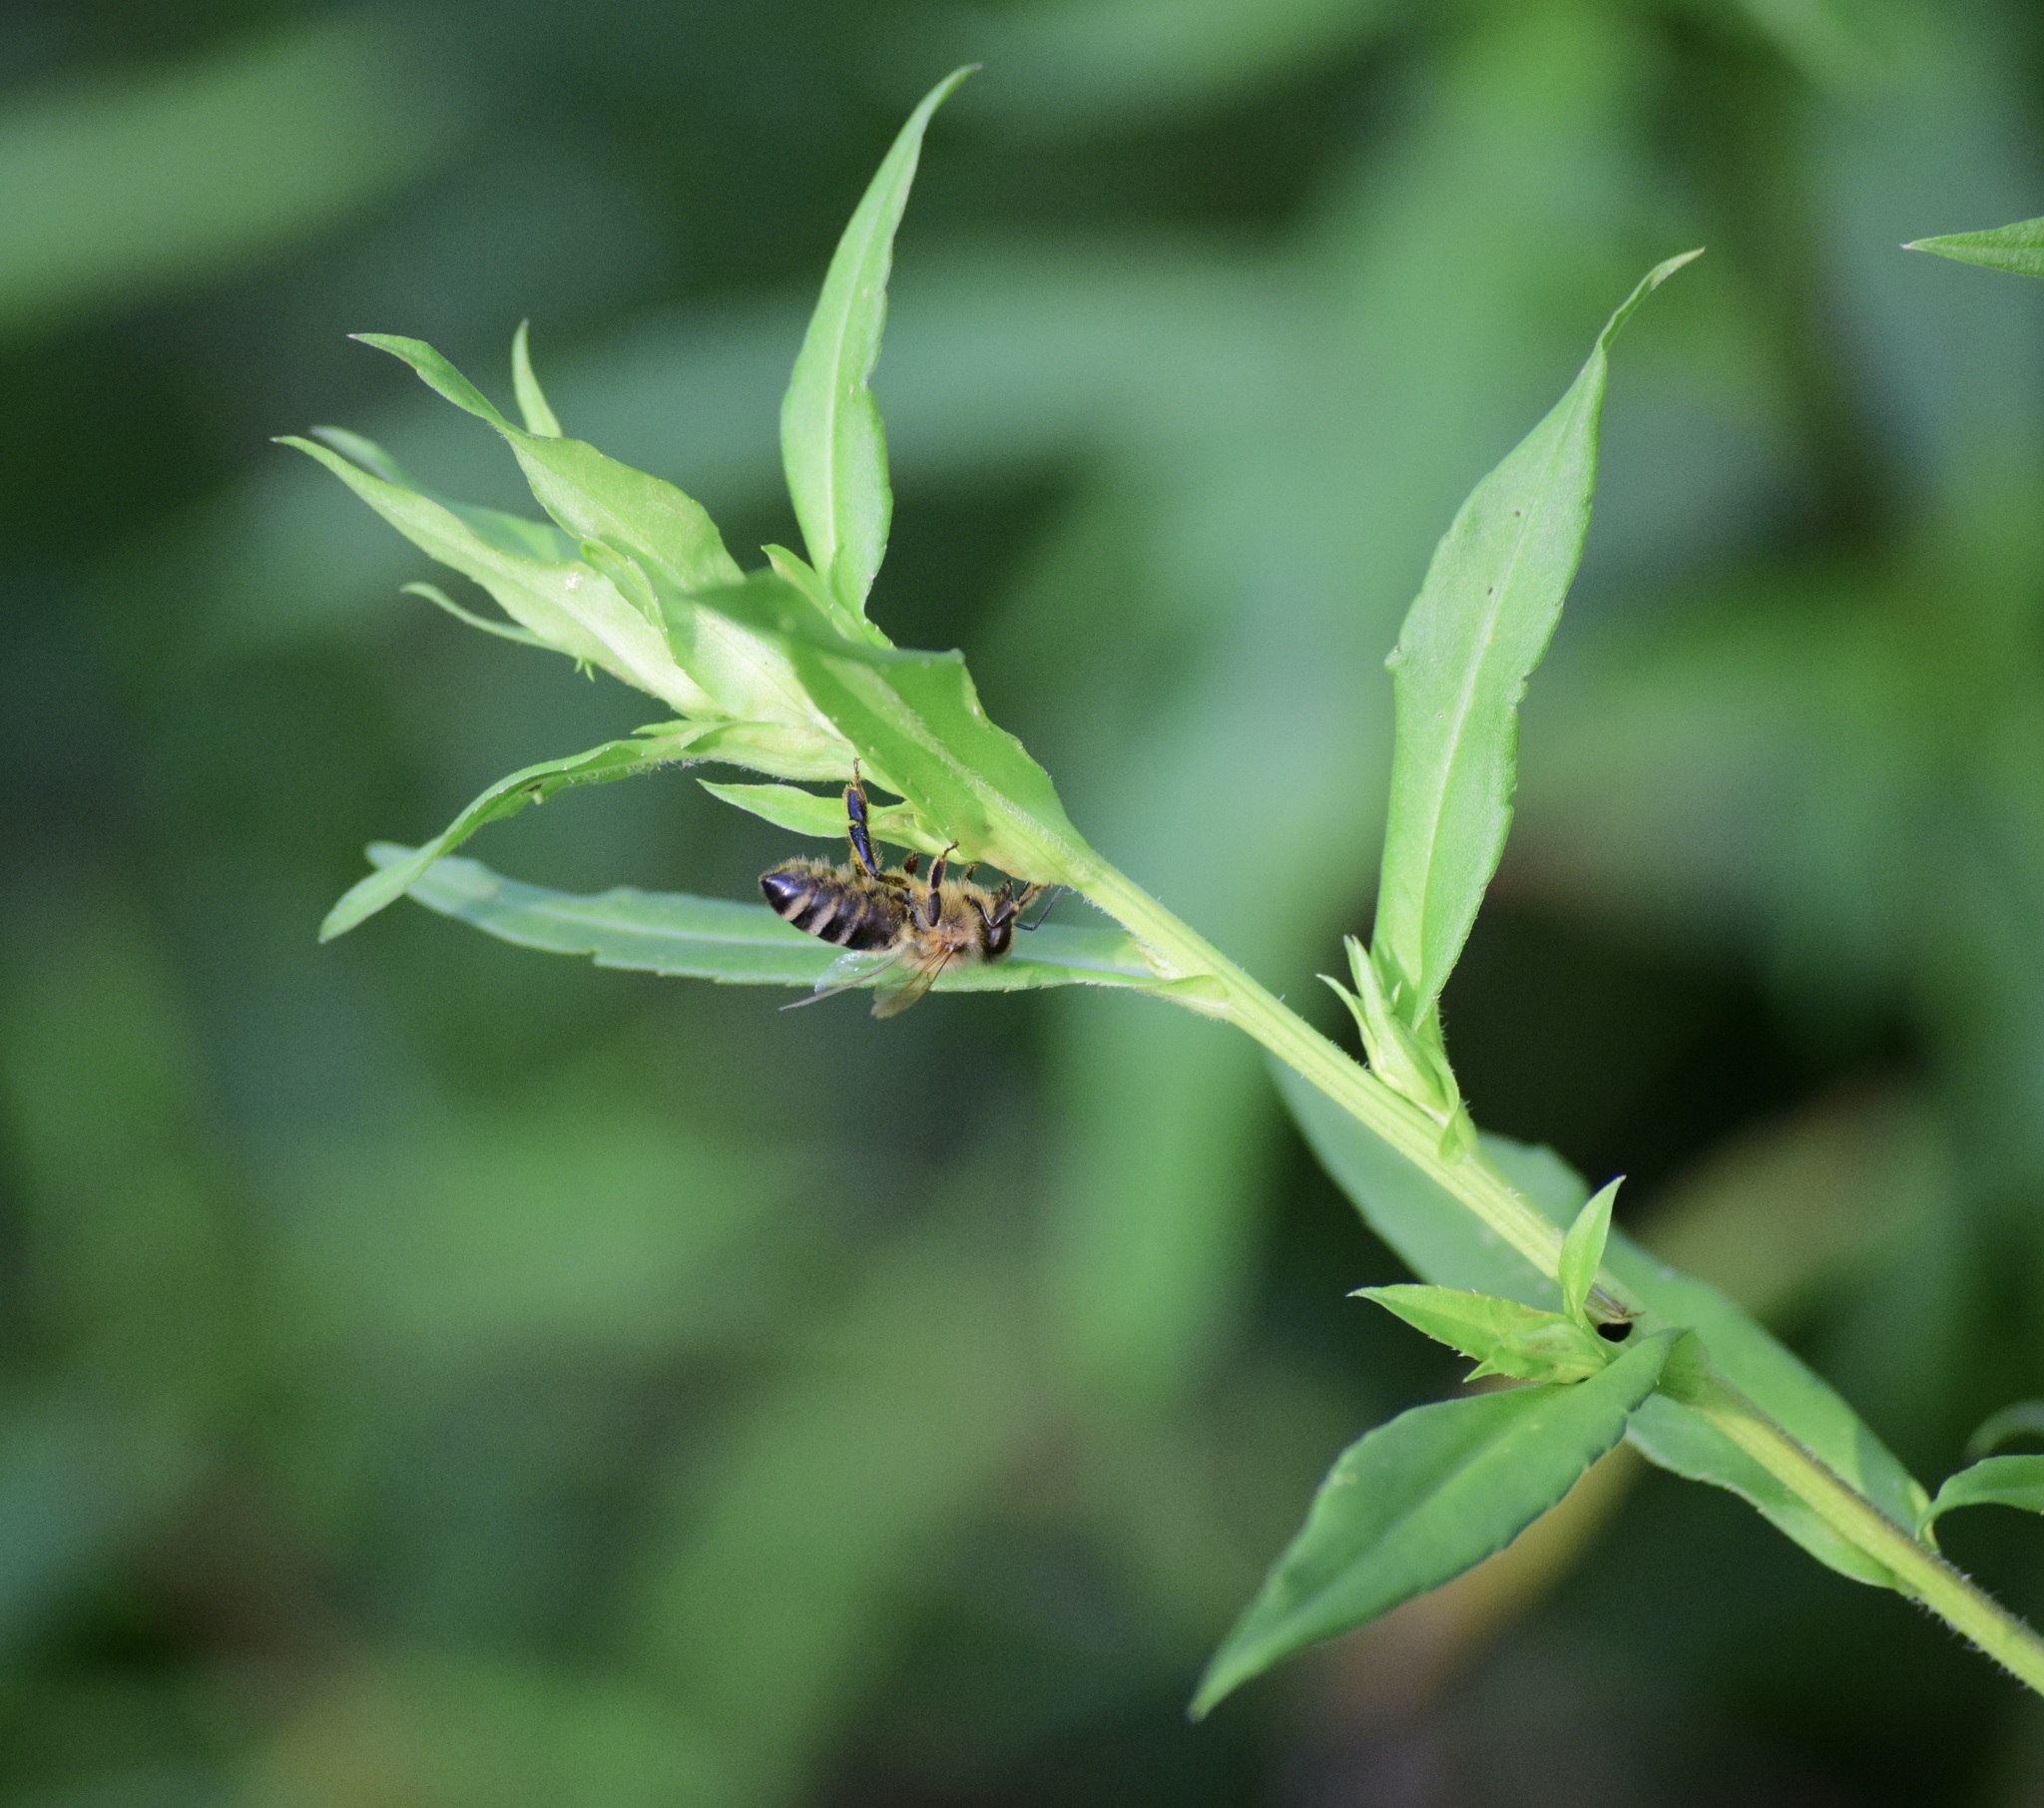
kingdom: Animalia
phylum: Arthropoda
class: Insecta
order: Hymenoptera
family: Apidae
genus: Apis
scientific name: Apis mellifera
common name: Honey bee
